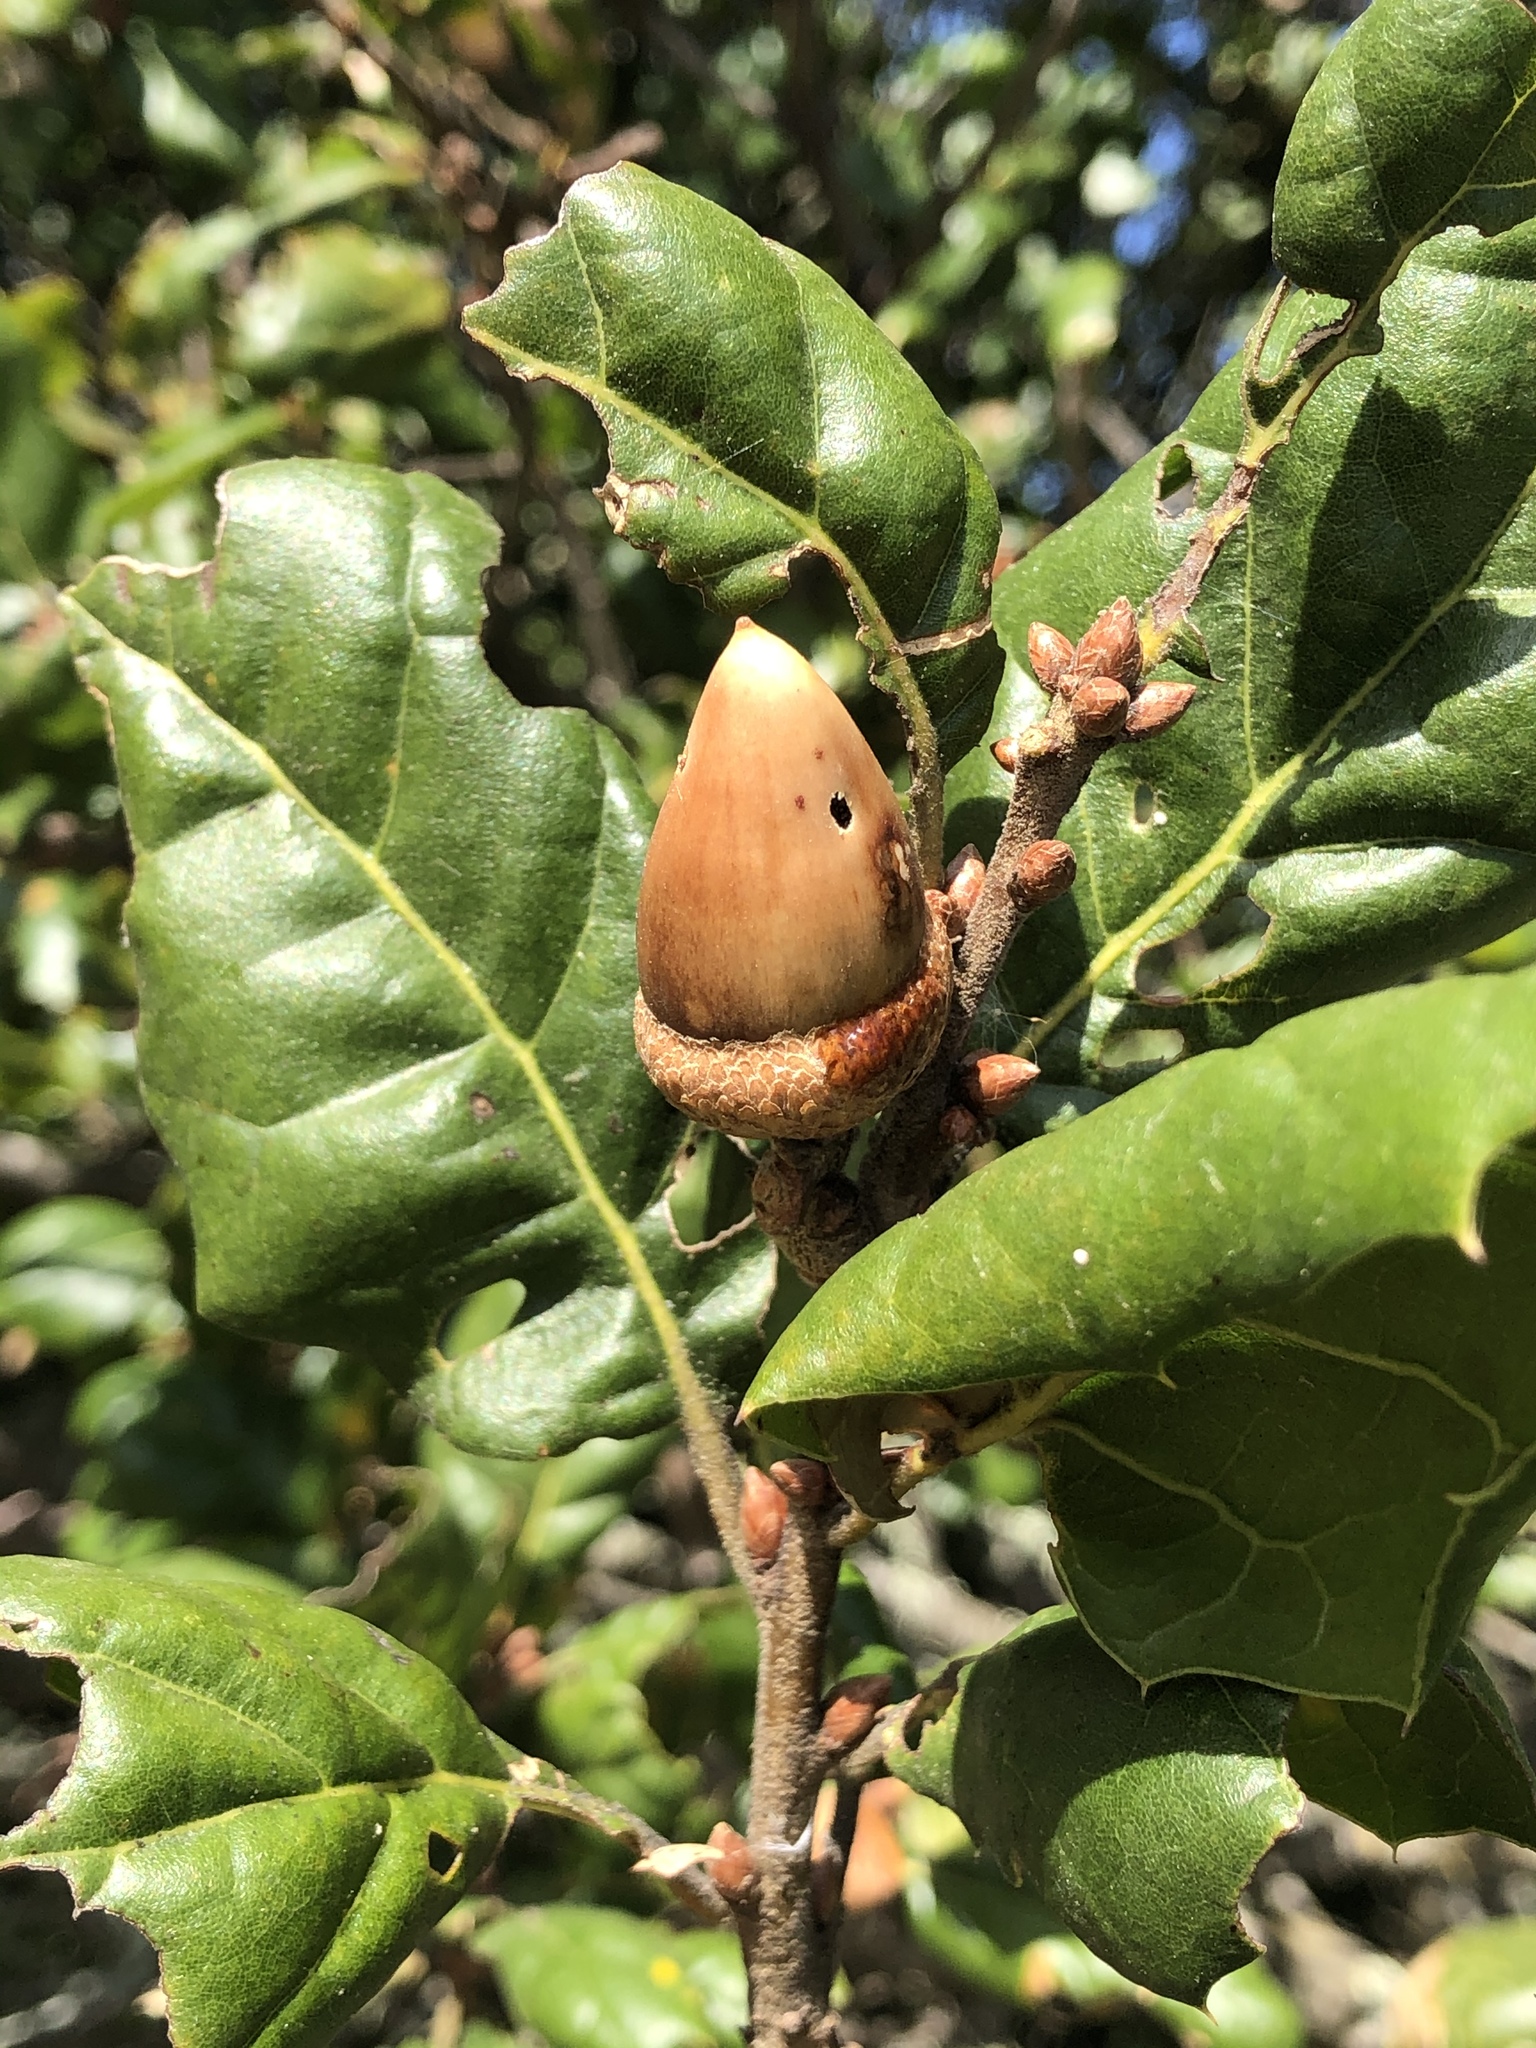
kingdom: Plantae
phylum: Tracheophyta
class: Magnoliopsida
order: Fagales
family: Fagaceae
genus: Quercus
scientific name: Quercus agrifolia
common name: California live oak
